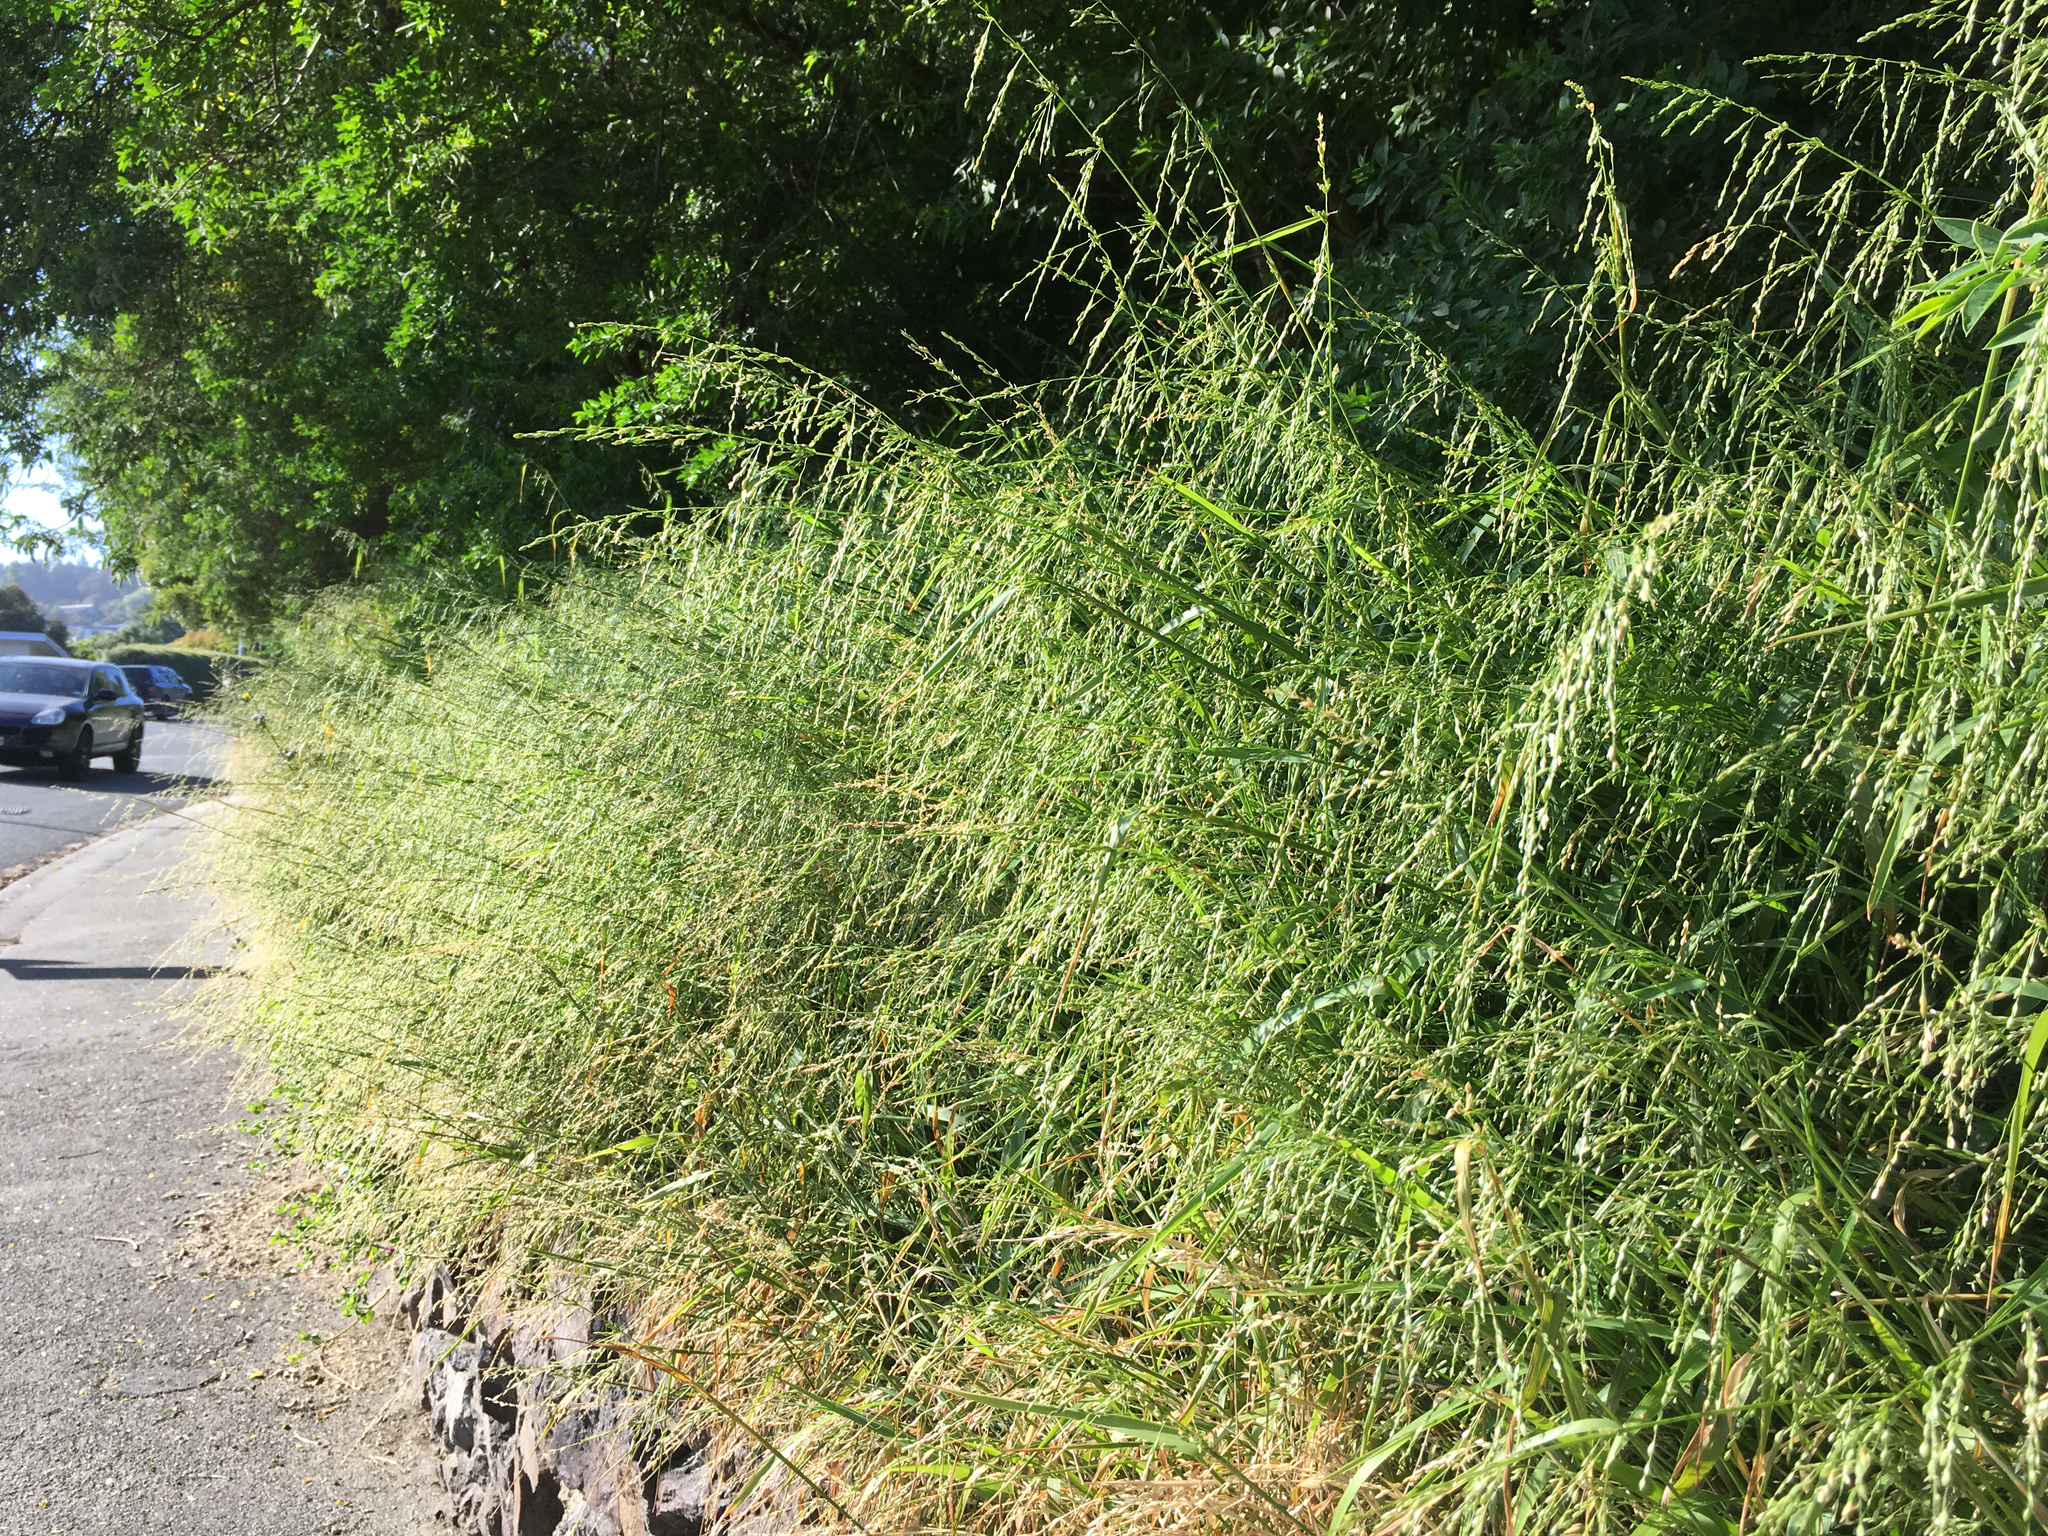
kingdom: Plantae
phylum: Tracheophyta
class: Liliopsida
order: Poales
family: Poaceae
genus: Ehrharta
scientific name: Ehrharta erecta
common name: Panic veldtgrass
